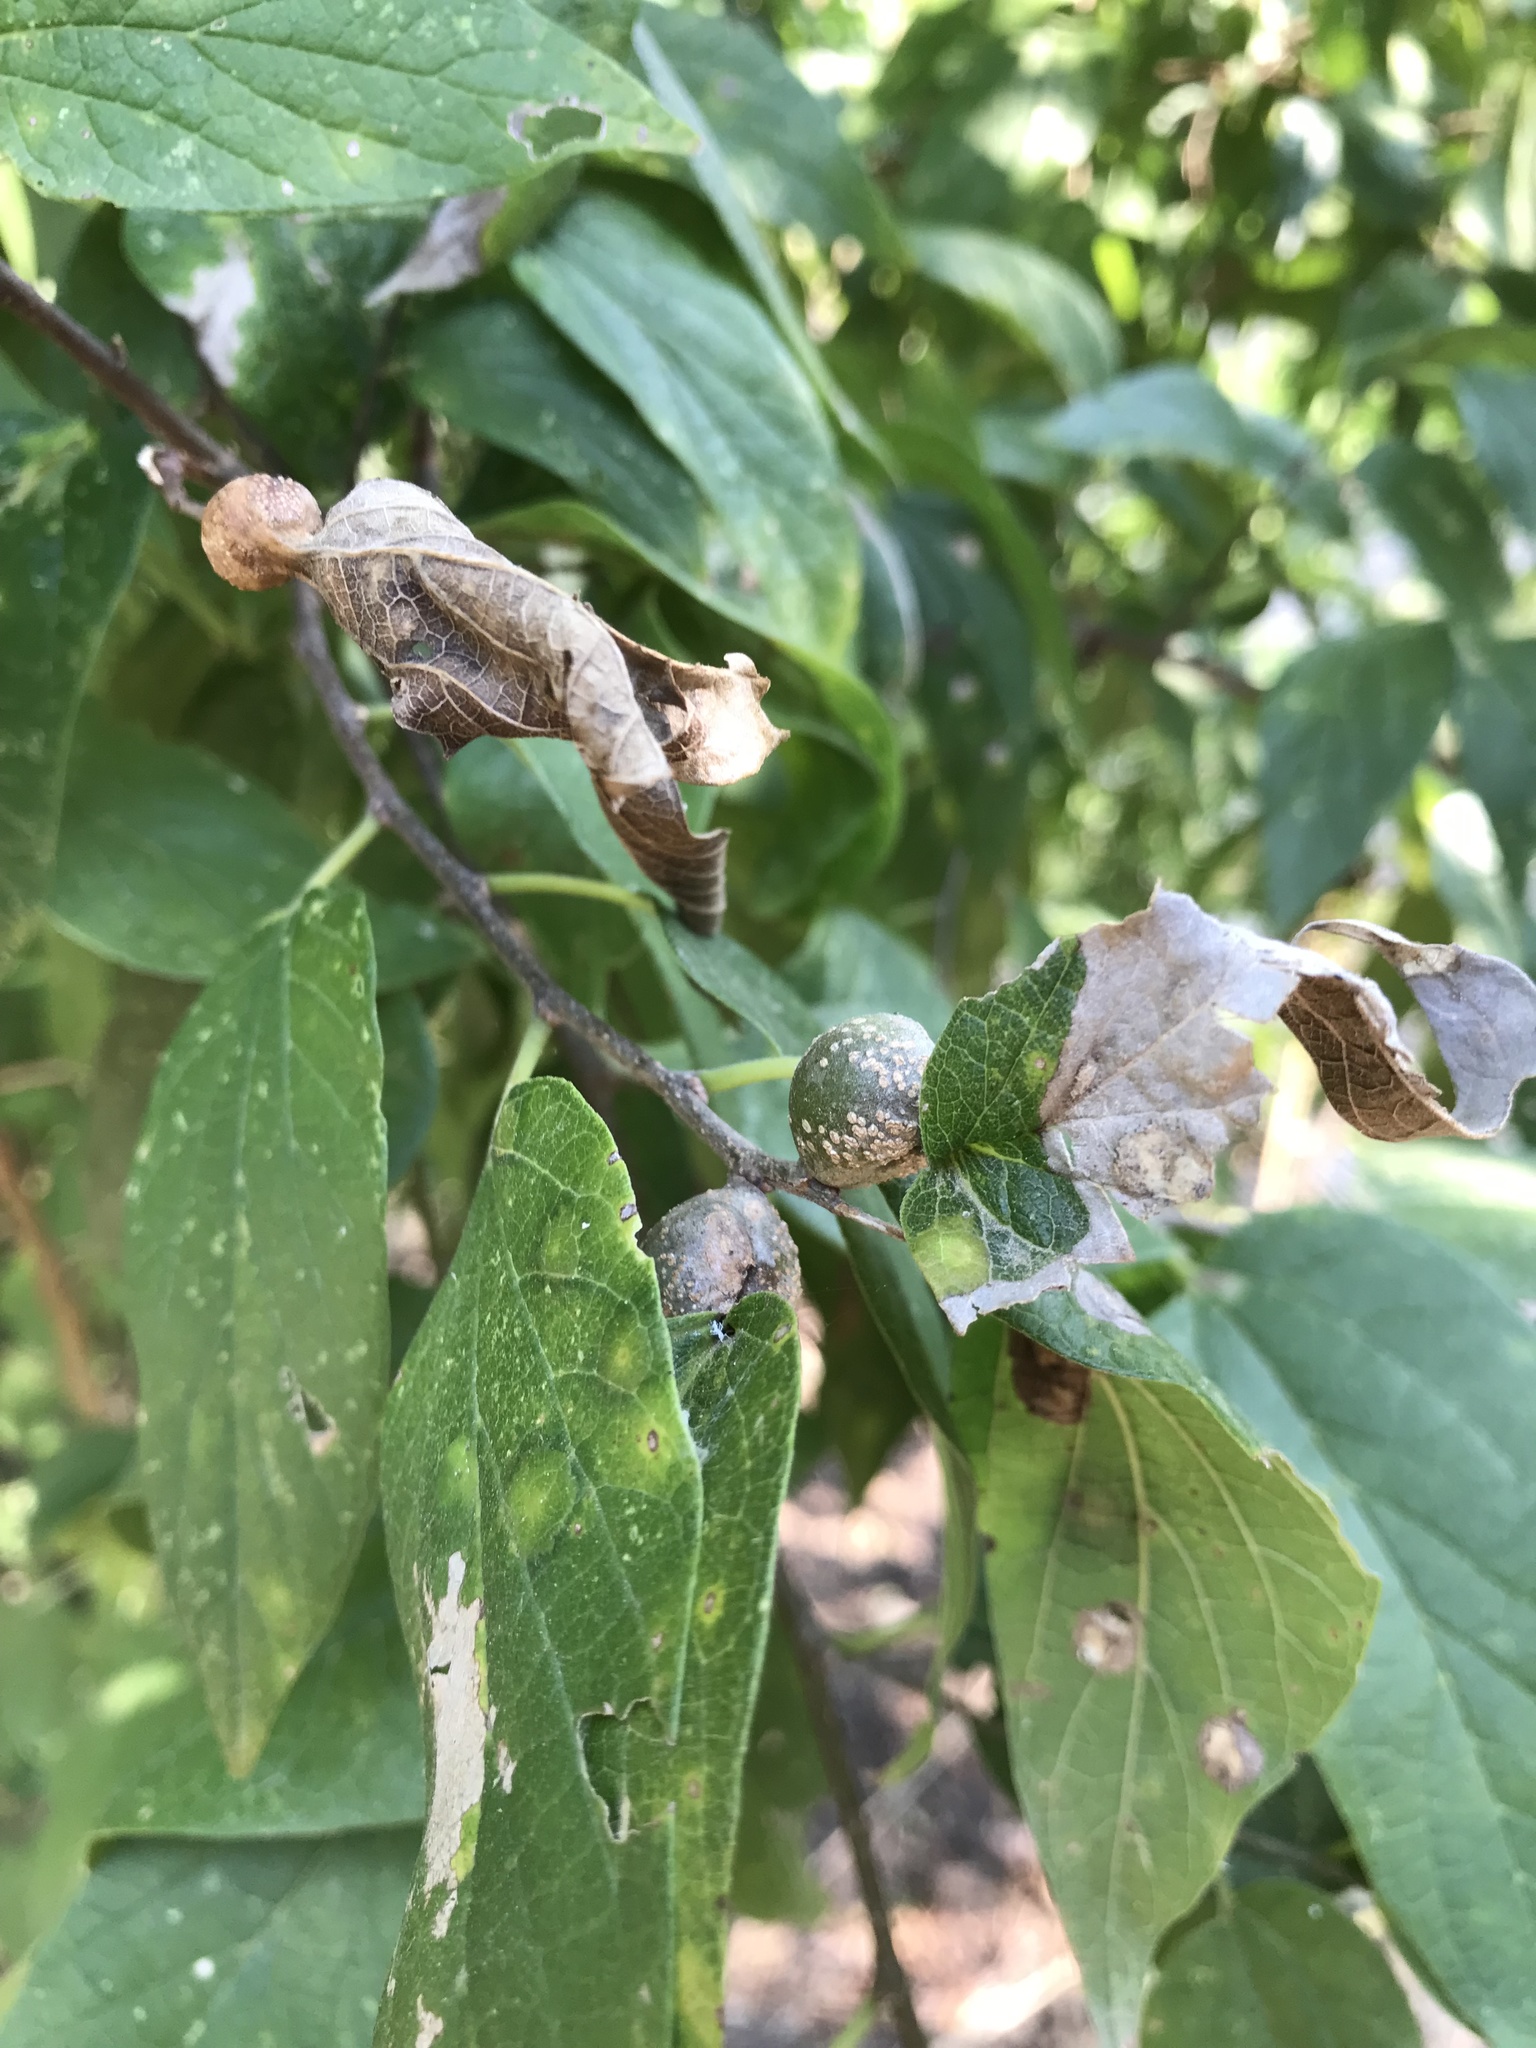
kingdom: Animalia
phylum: Arthropoda
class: Insecta
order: Hemiptera
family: Aphalaridae
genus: Pachypsylla
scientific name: Pachypsylla venusta
